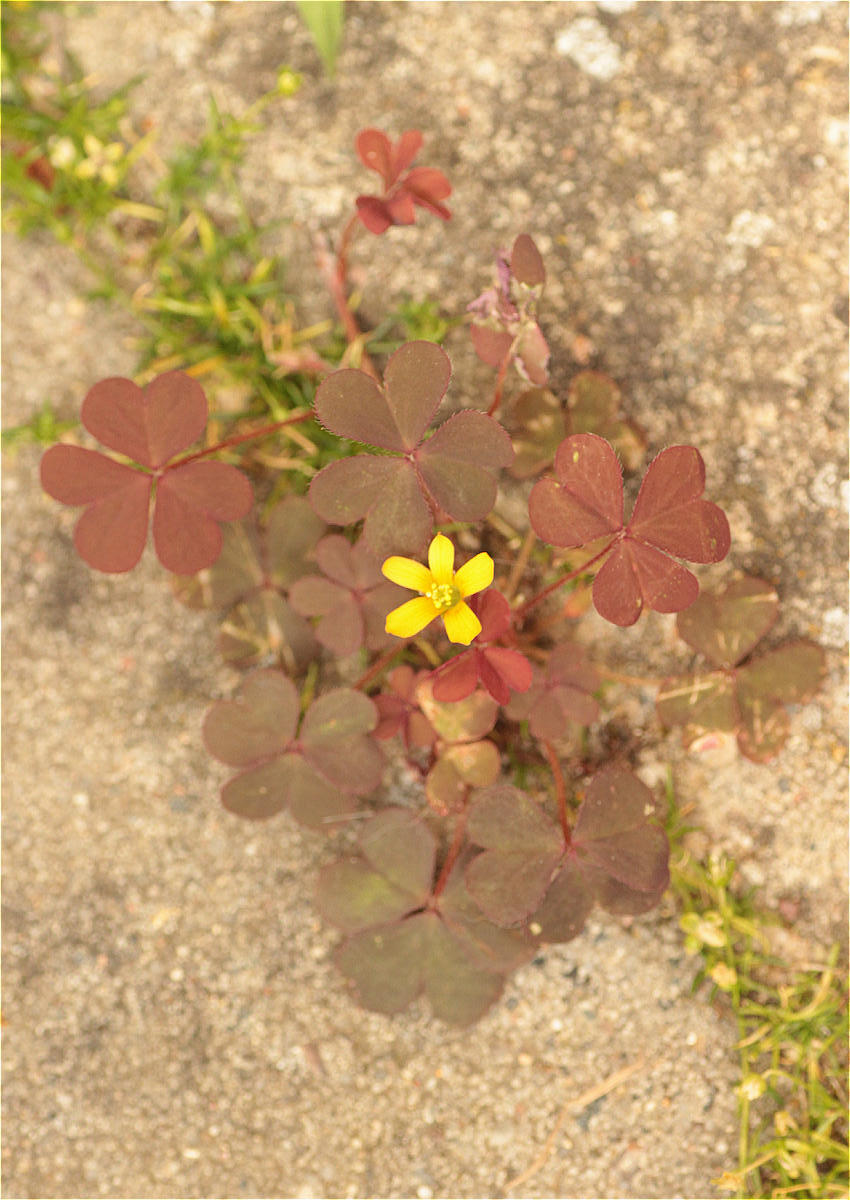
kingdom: Plantae
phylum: Tracheophyta
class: Magnoliopsida
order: Oxalidales
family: Oxalidaceae
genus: Oxalis
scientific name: Oxalis corniculata
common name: Procumbent yellow-sorrel
